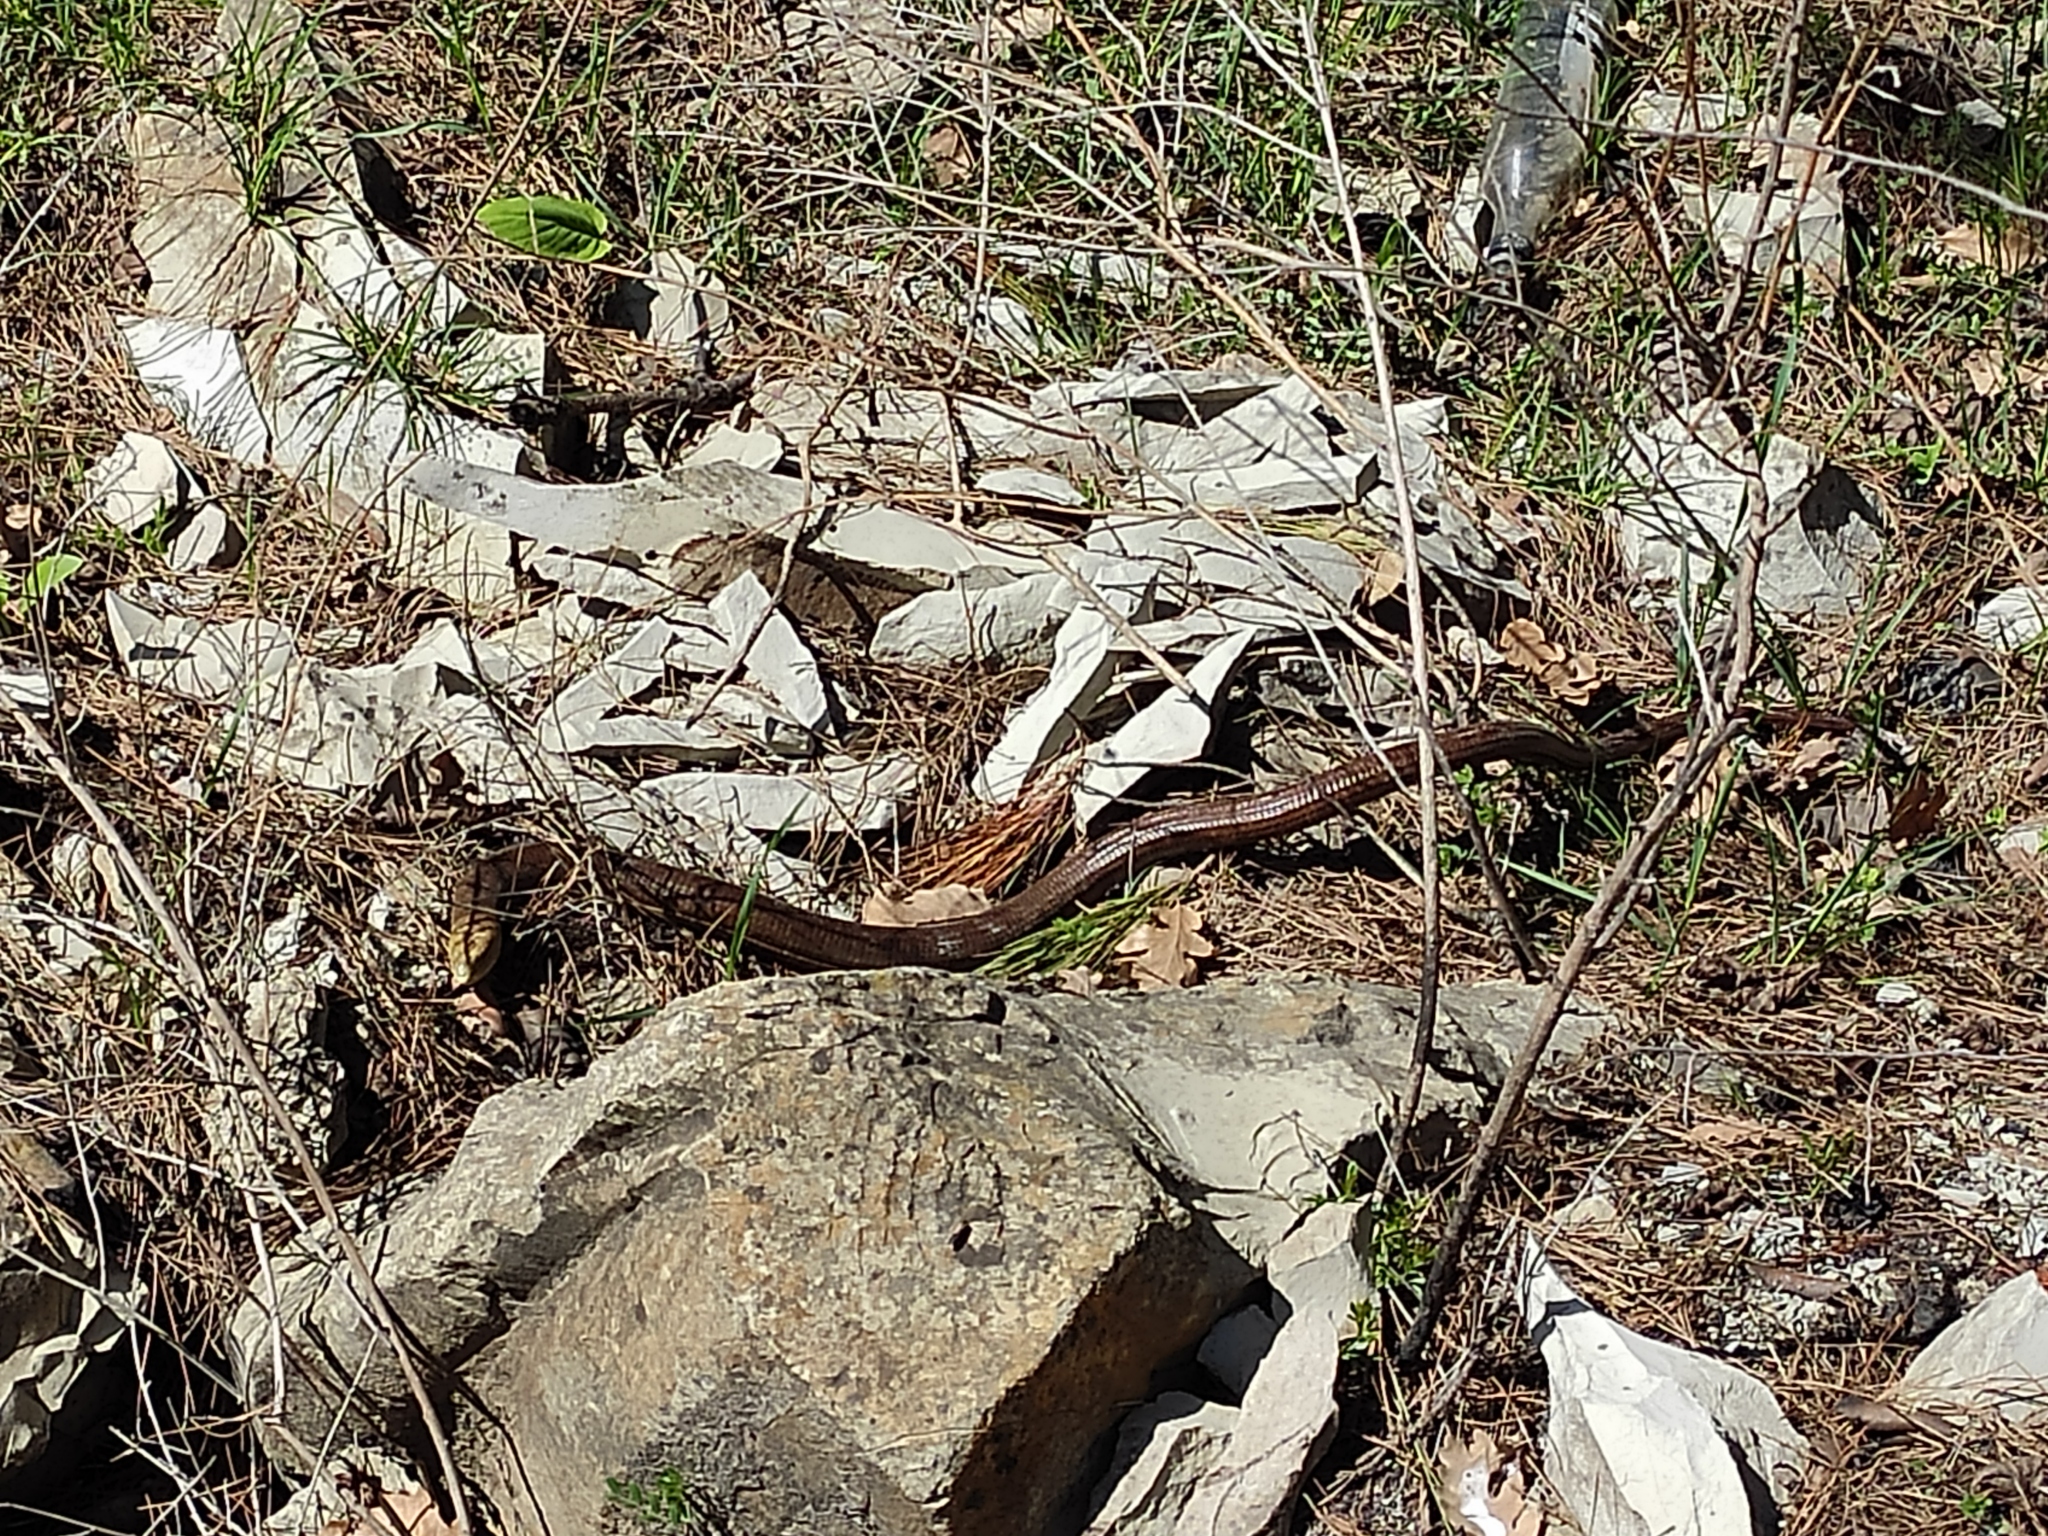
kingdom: Animalia
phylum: Chordata
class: Squamata
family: Anguidae
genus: Pseudopus
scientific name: Pseudopus apodus
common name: European glass lizard
